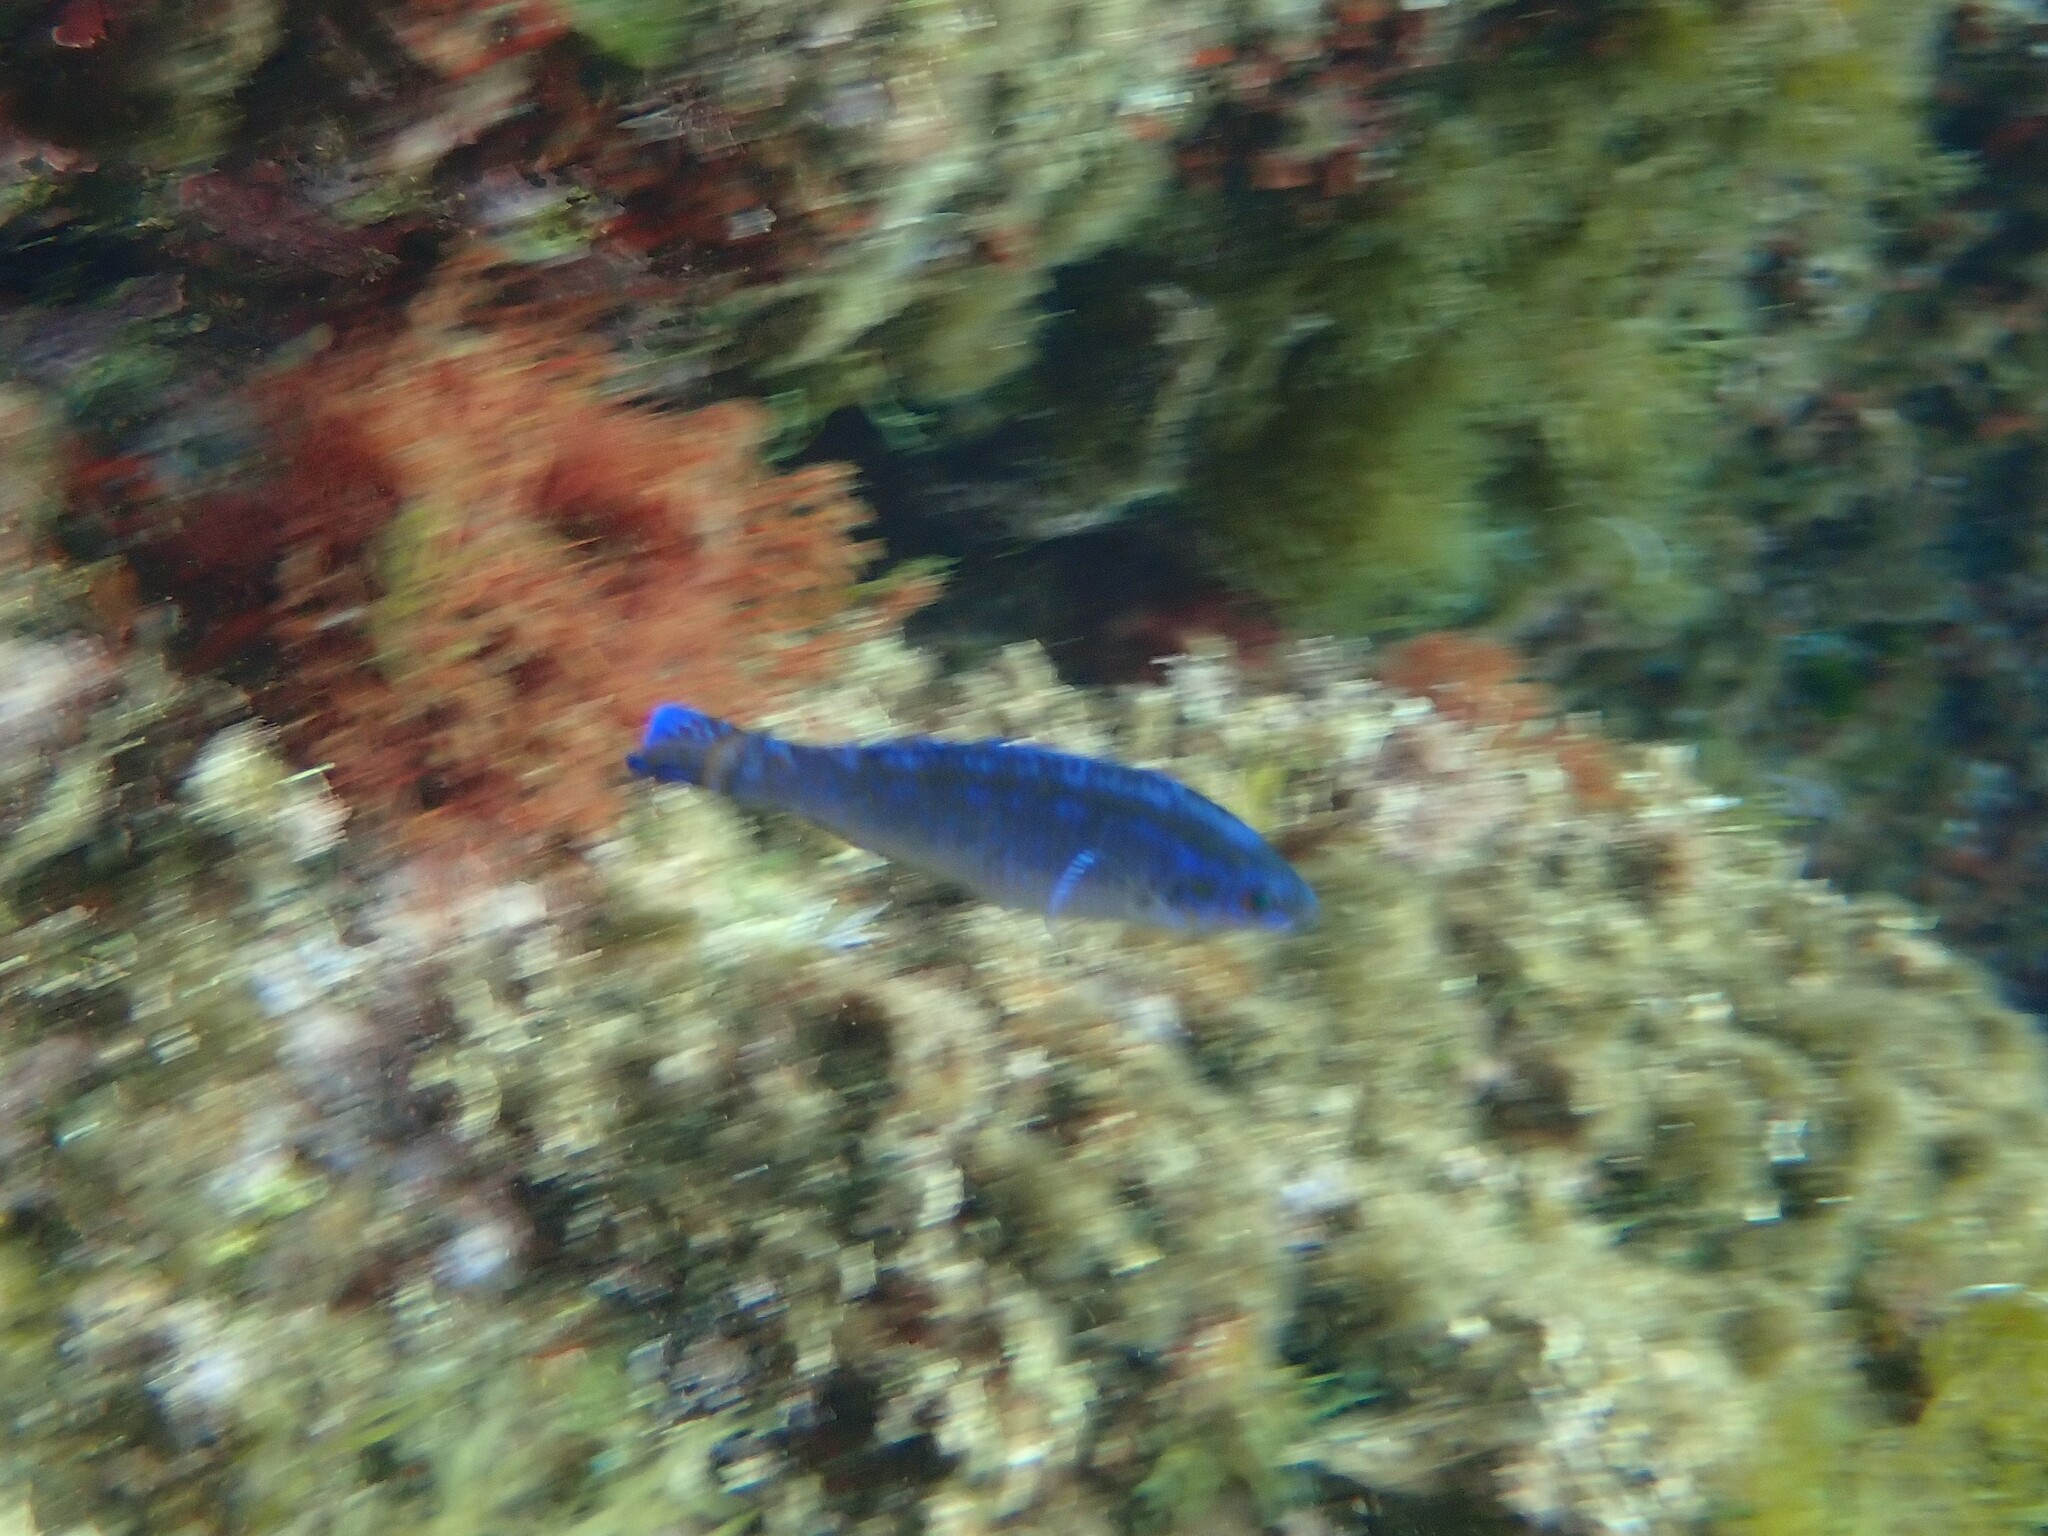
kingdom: Animalia
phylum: Chordata
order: Perciformes
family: Labridae
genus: Centrolabrus
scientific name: Centrolabrus melanocercus
